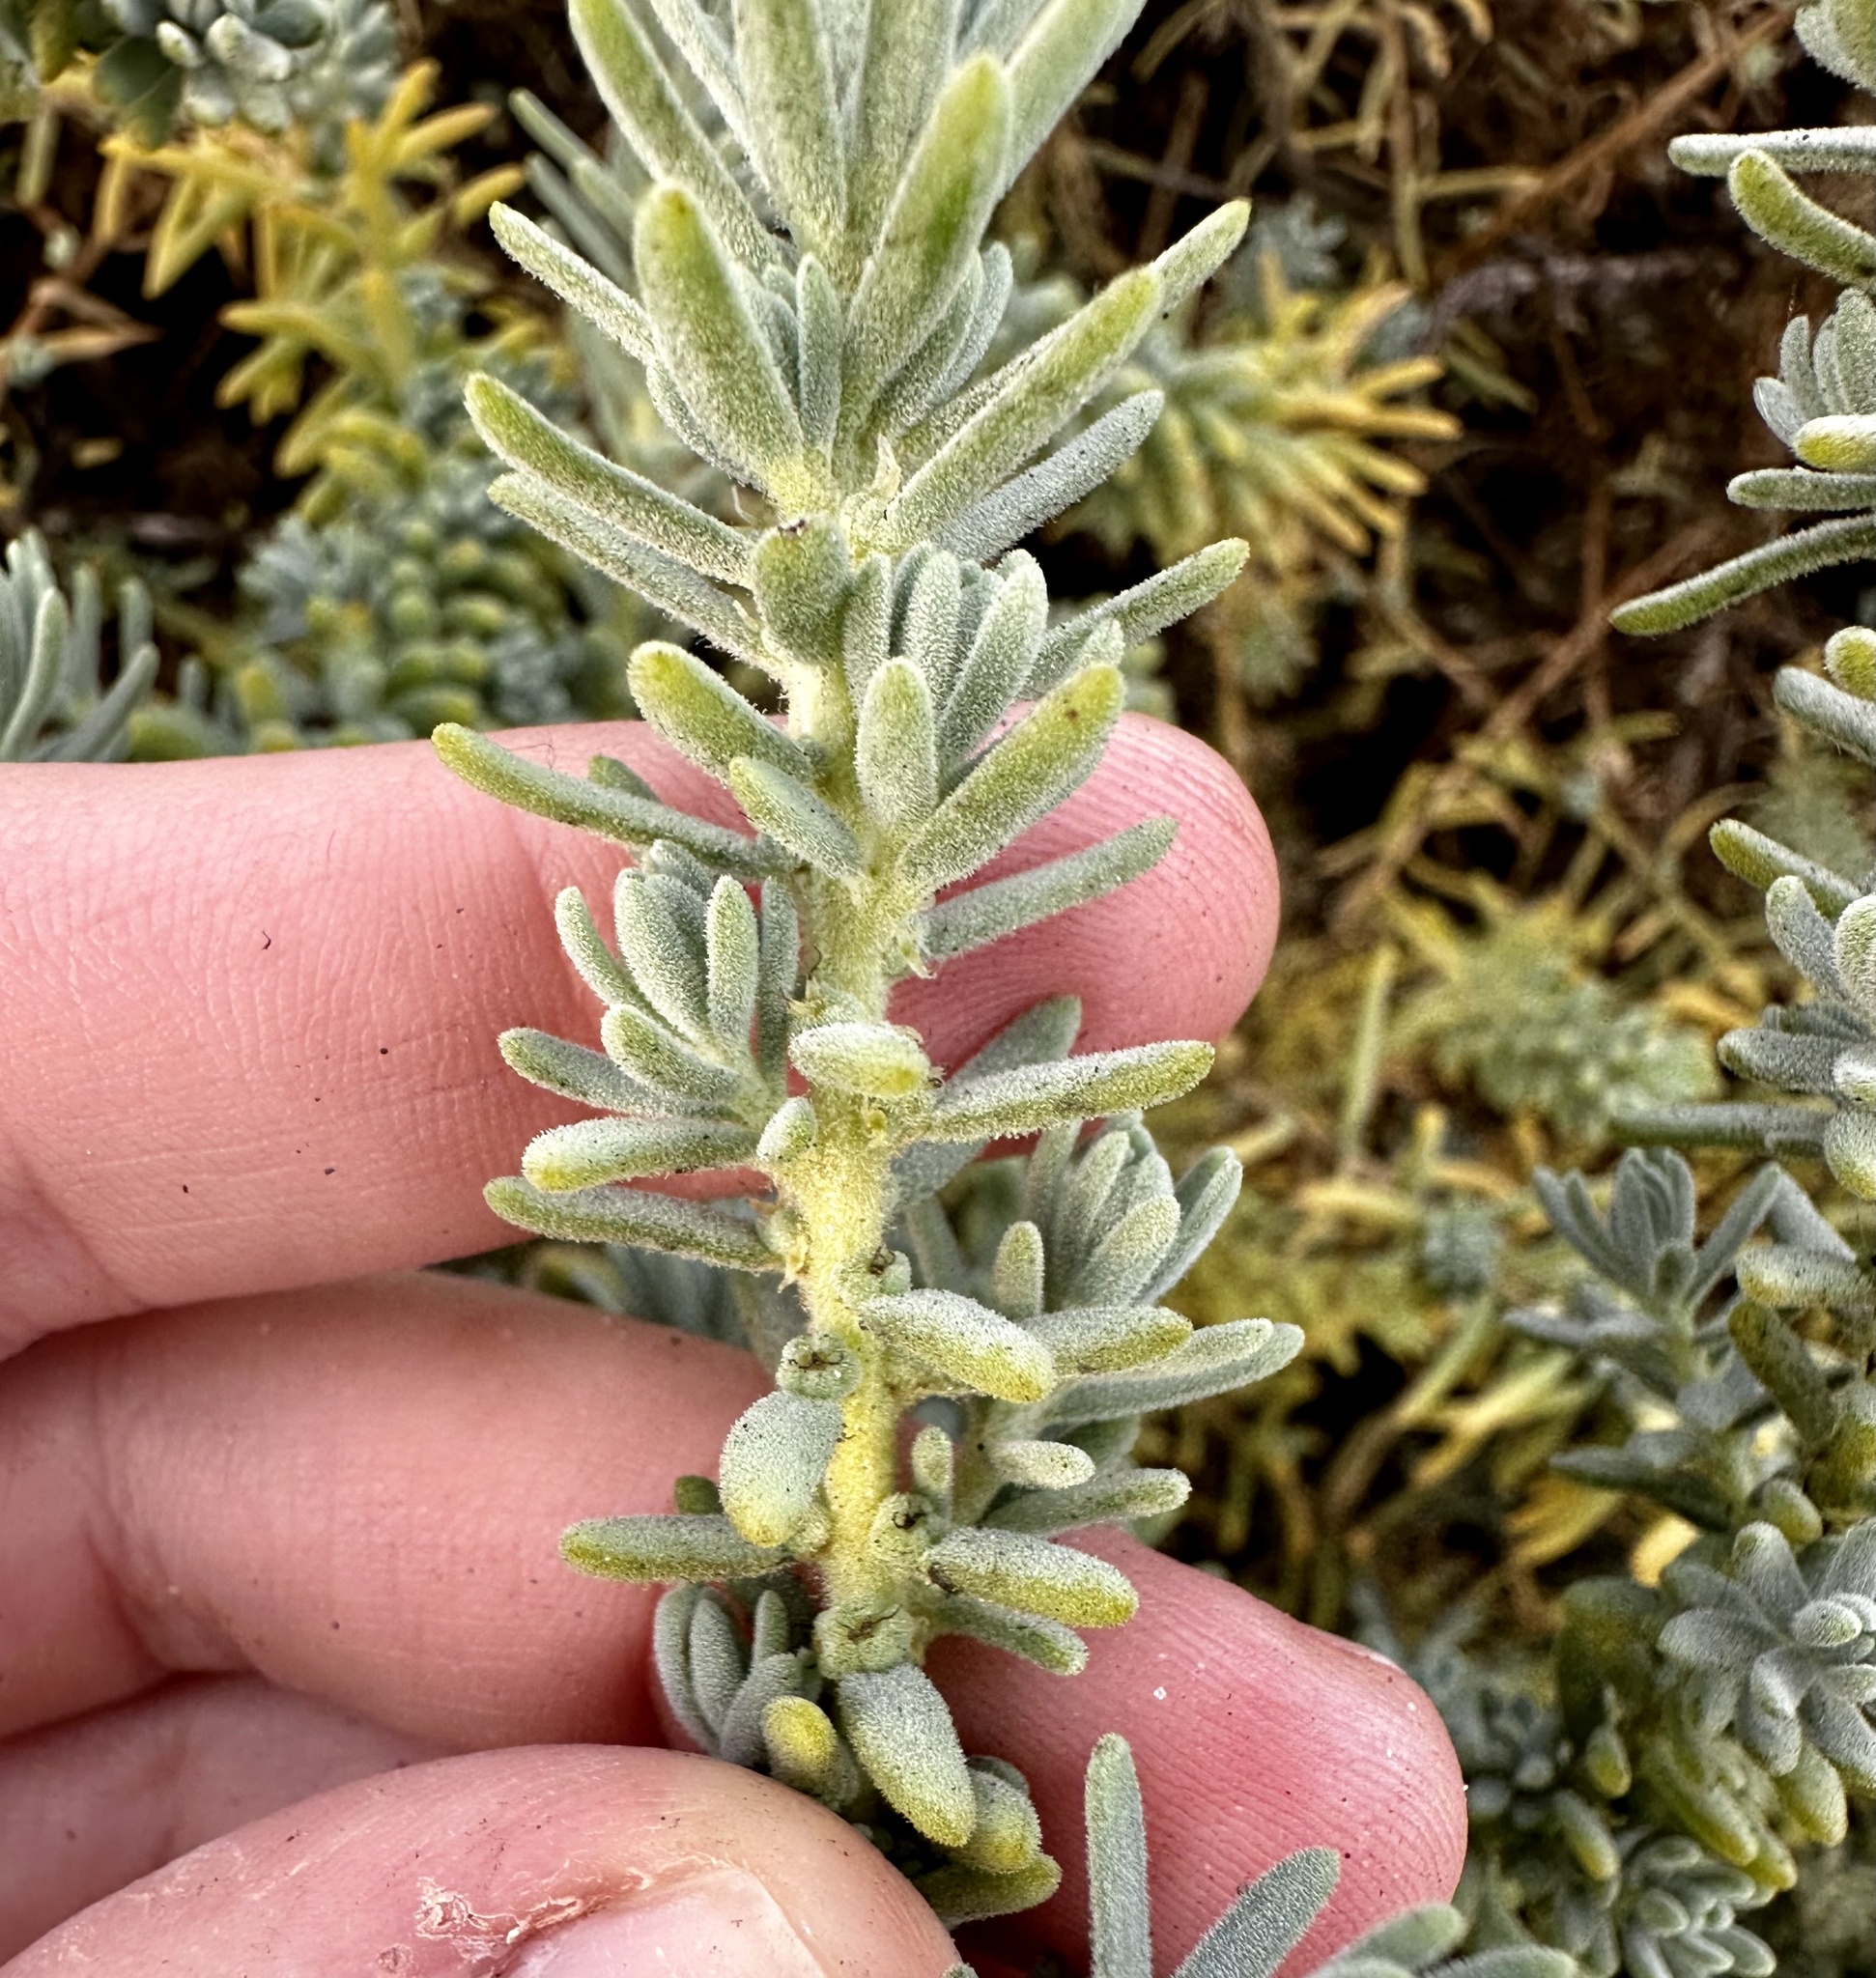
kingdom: Plantae
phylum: Tracheophyta
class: Magnoliopsida
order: Caryophyllales
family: Amaranthaceae
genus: Suaeda
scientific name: Suaeda taxifolia
